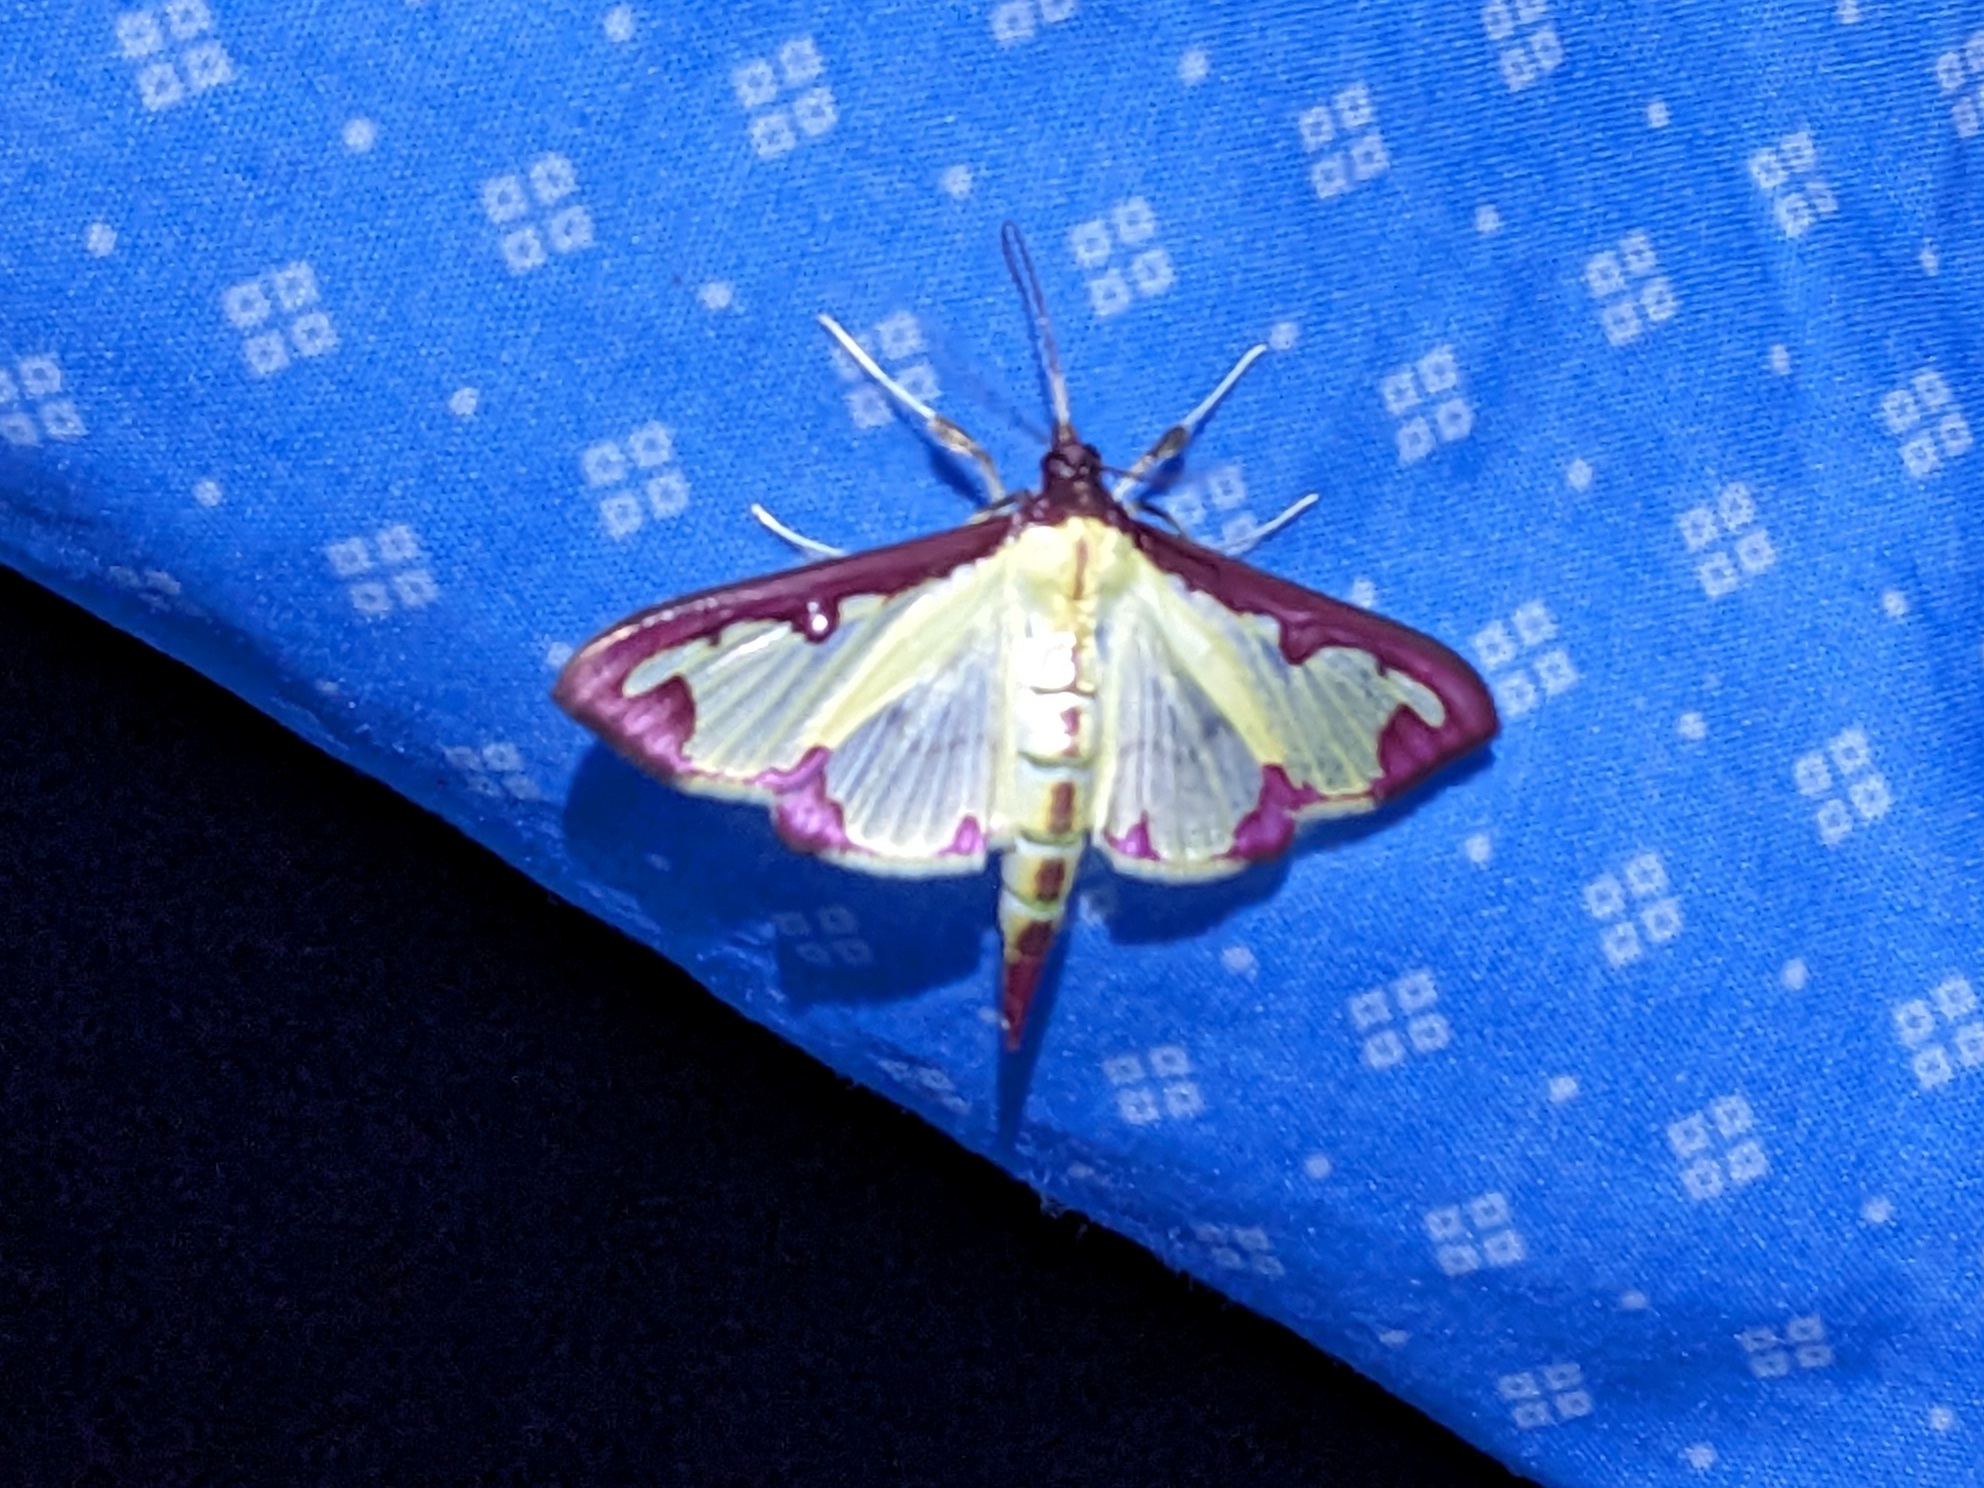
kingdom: Animalia
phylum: Arthropoda
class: Insecta
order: Lepidoptera
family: Crambidae
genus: Cadarena
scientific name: Cadarena pudoraria
